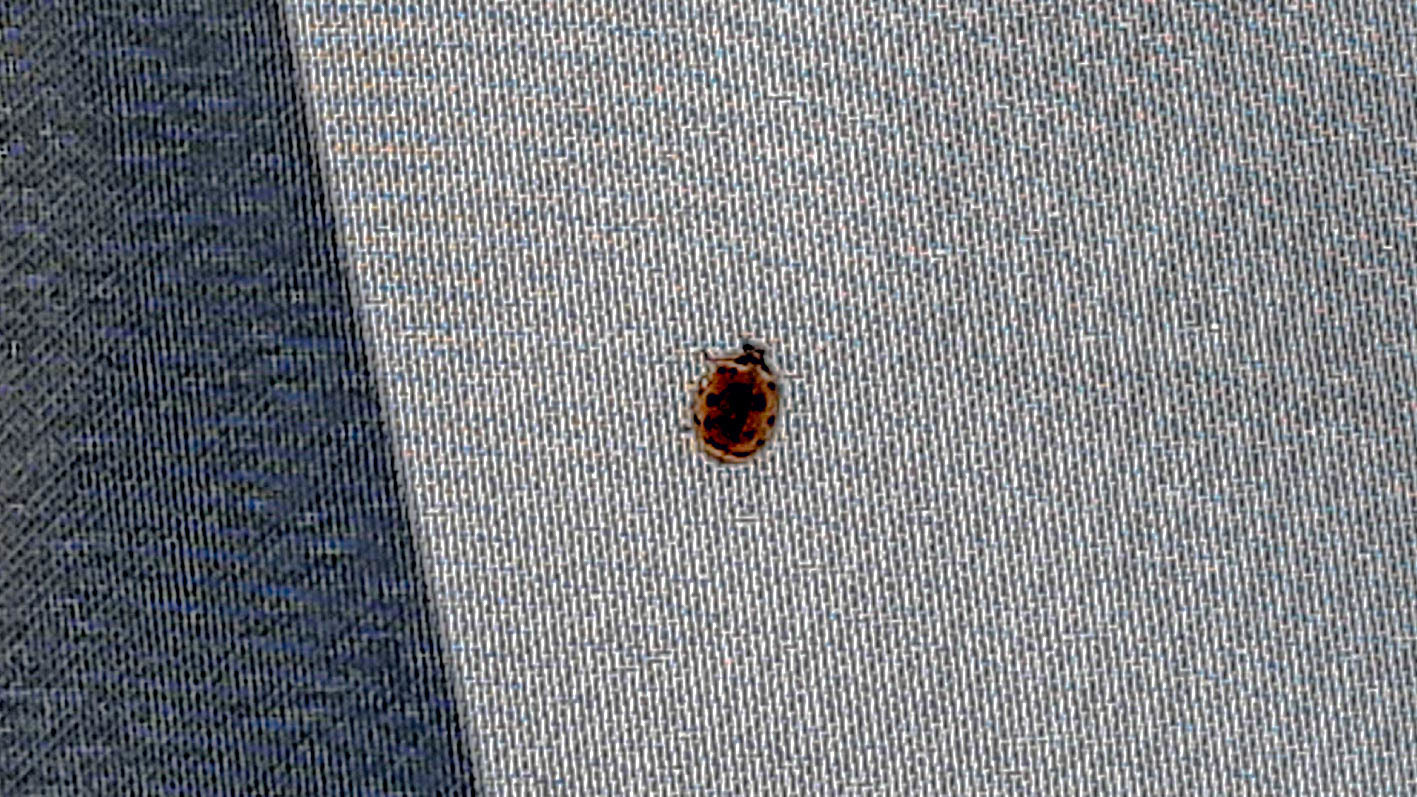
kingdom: Animalia
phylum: Arthropoda
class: Insecta
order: Coleoptera
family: Coccinellidae
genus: Harmonia
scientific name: Harmonia axyridis
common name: Harlequin ladybird
